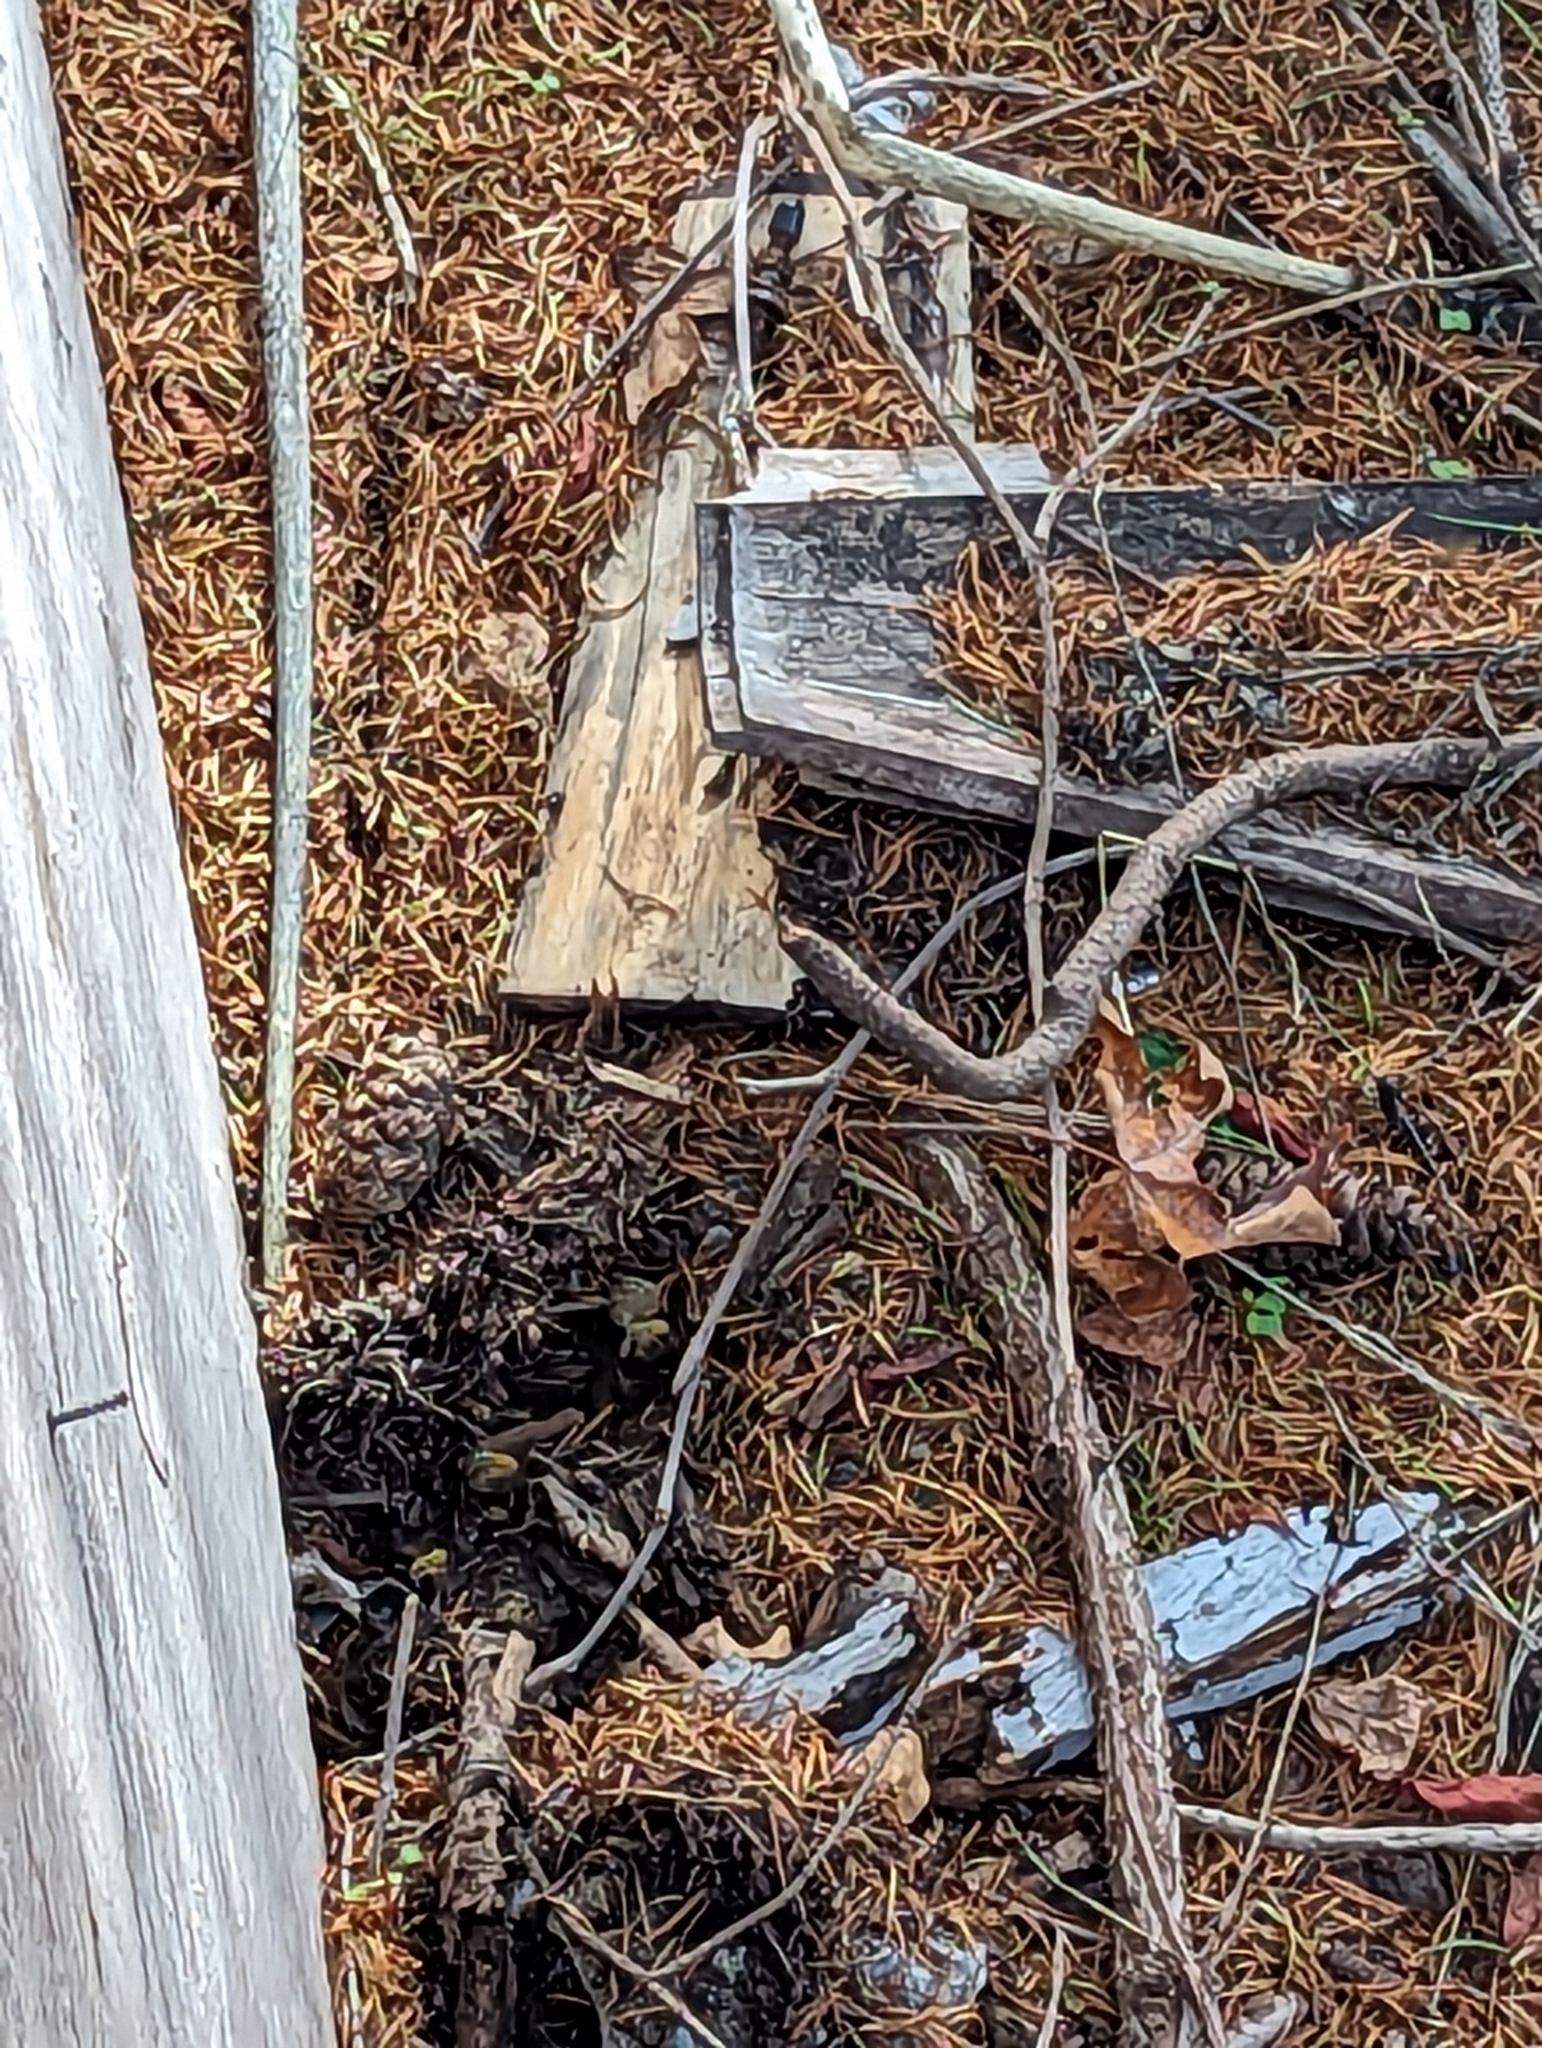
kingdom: Animalia
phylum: Arthropoda
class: Insecta
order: Hymenoptera
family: Vespidae
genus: Vespula
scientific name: Vespula
